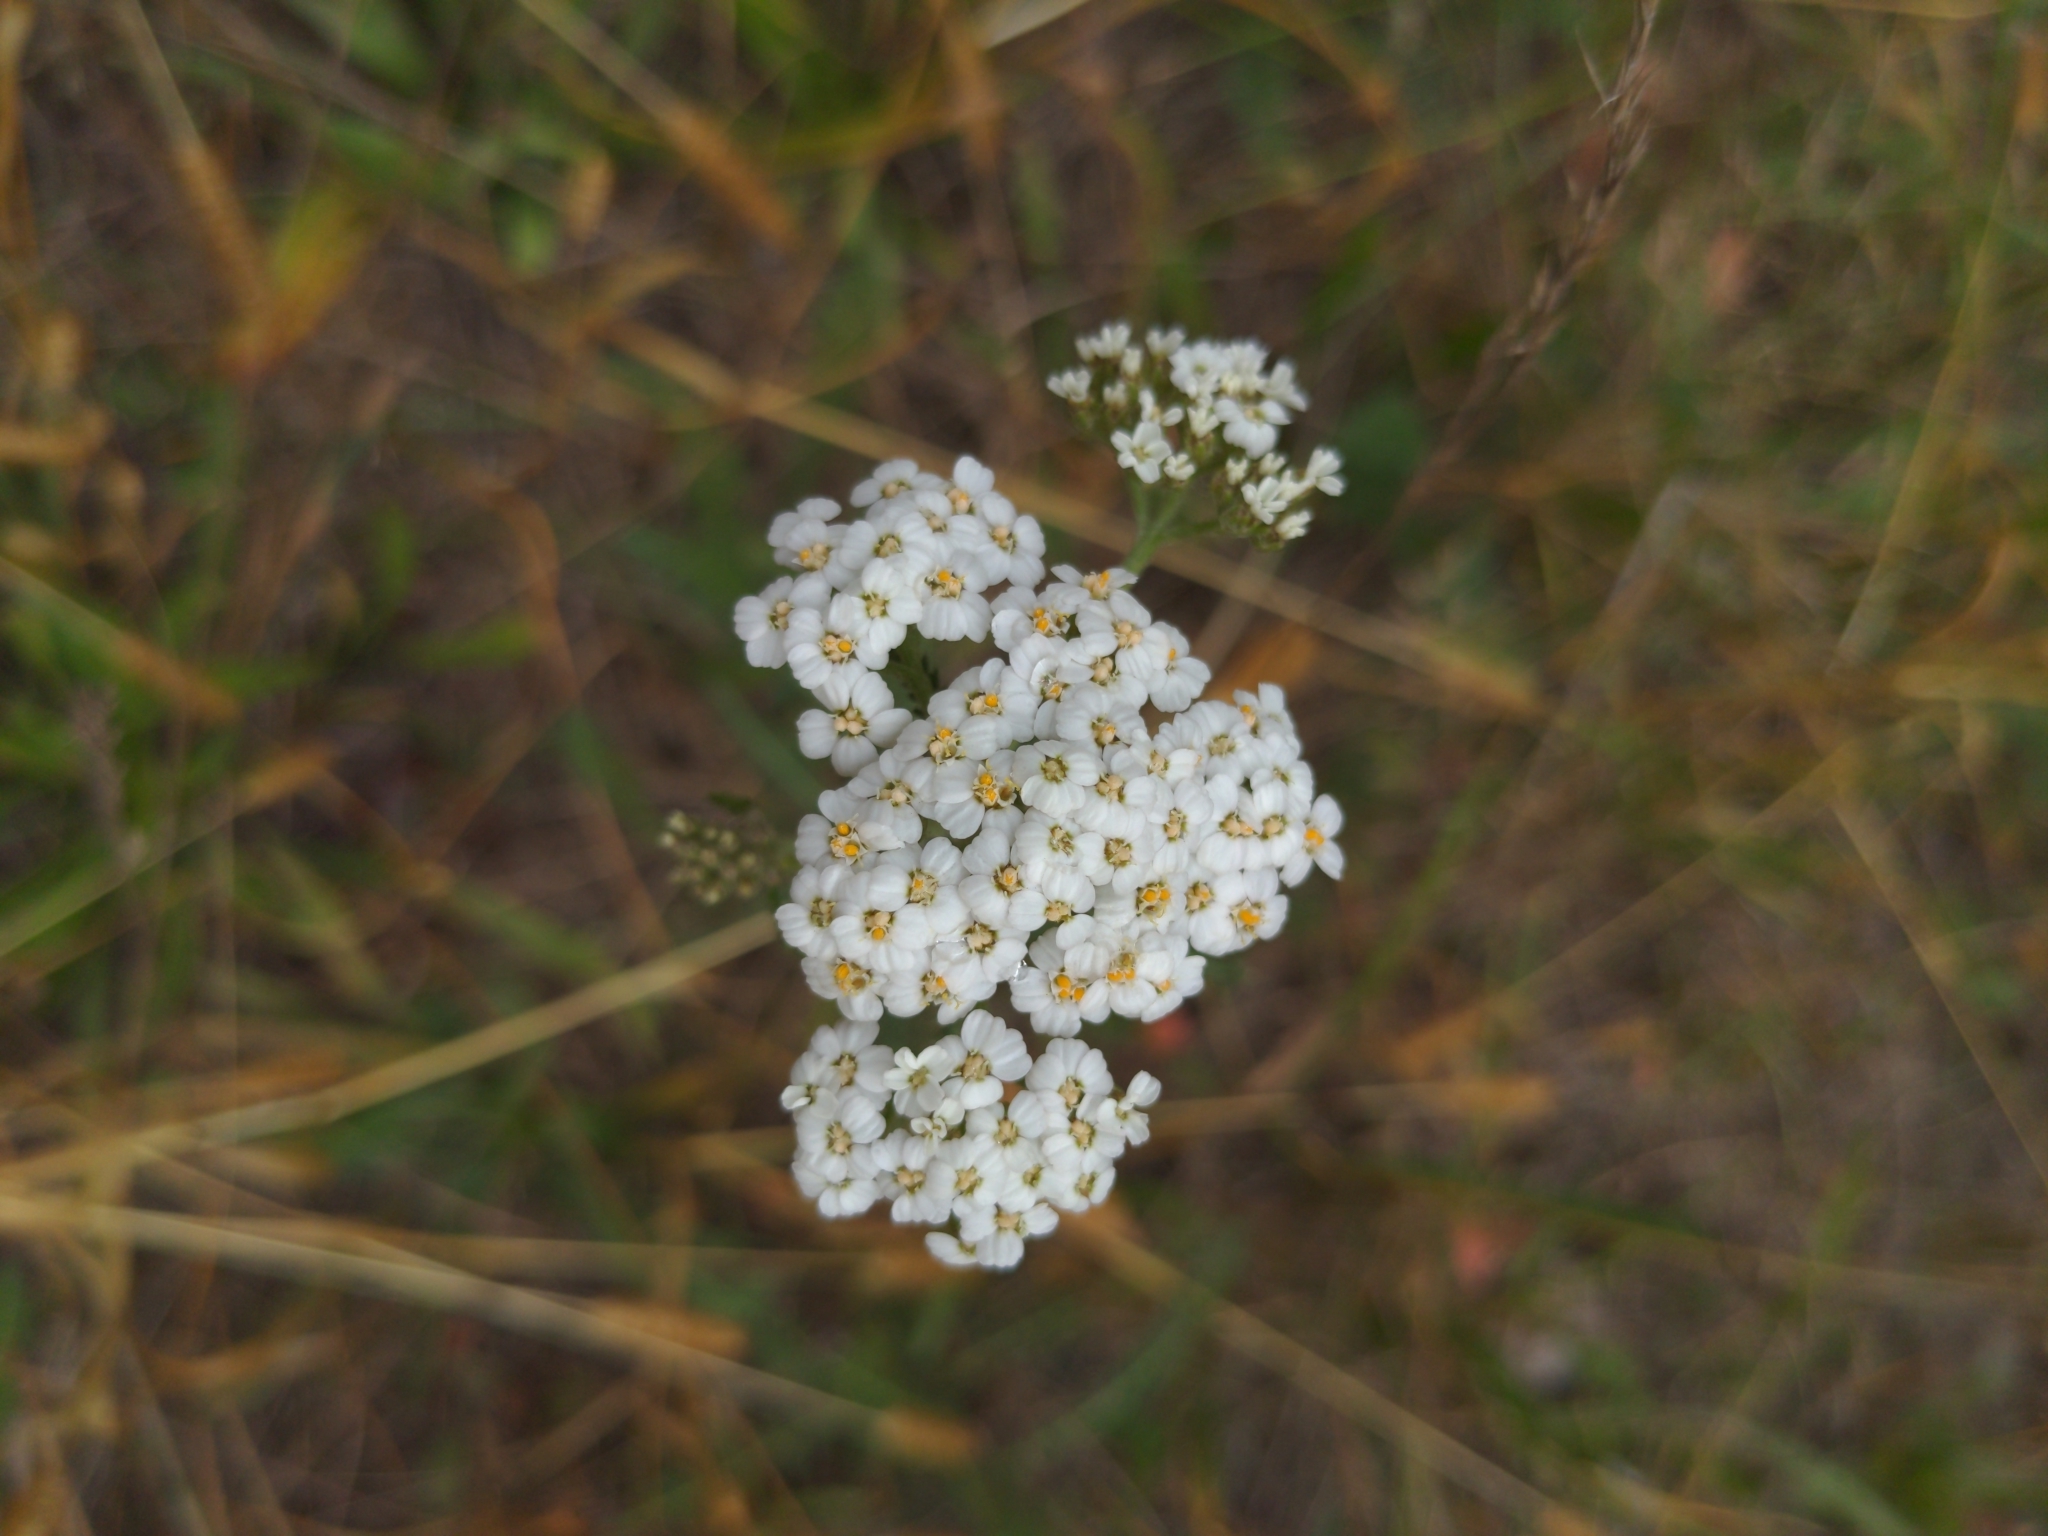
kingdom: Plantae
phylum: Tracheophyta
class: Magnoliopsida
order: Asterales
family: Asteraceae
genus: Achillea
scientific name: Achillea millefolium
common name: Yarrow
